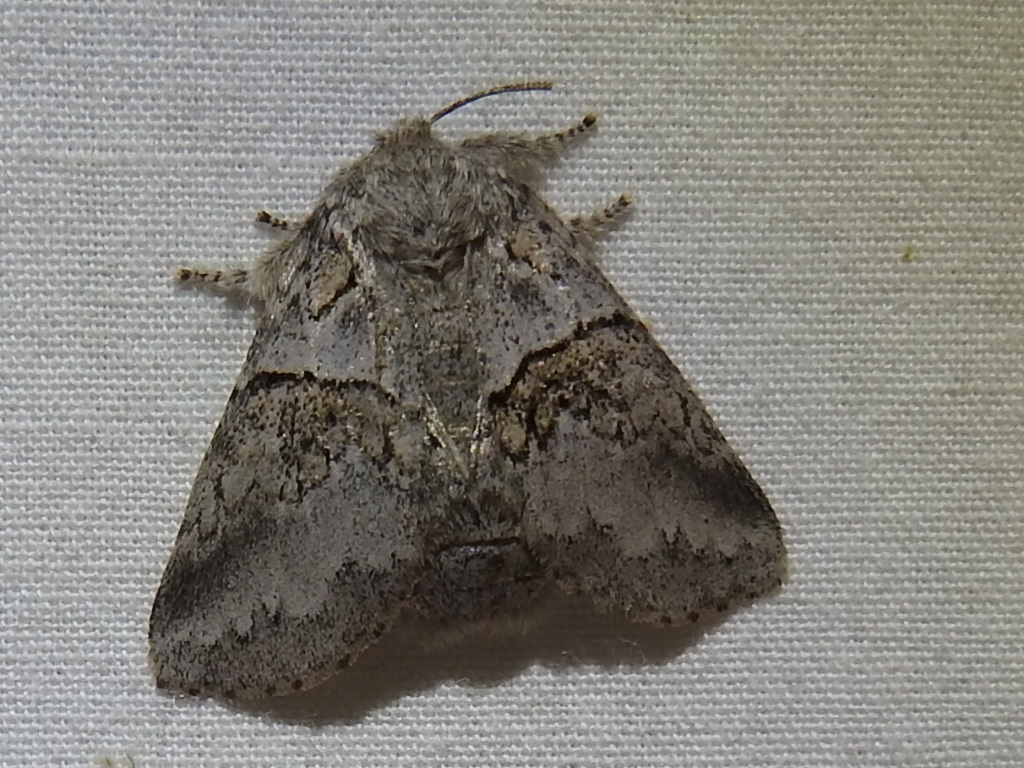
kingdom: Animalia
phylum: Arthropoda
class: Insecta
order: Lepidoptera
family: Notodontidae
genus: Gluphisia
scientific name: Gluphisia septentrionis
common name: Common gluphisia
